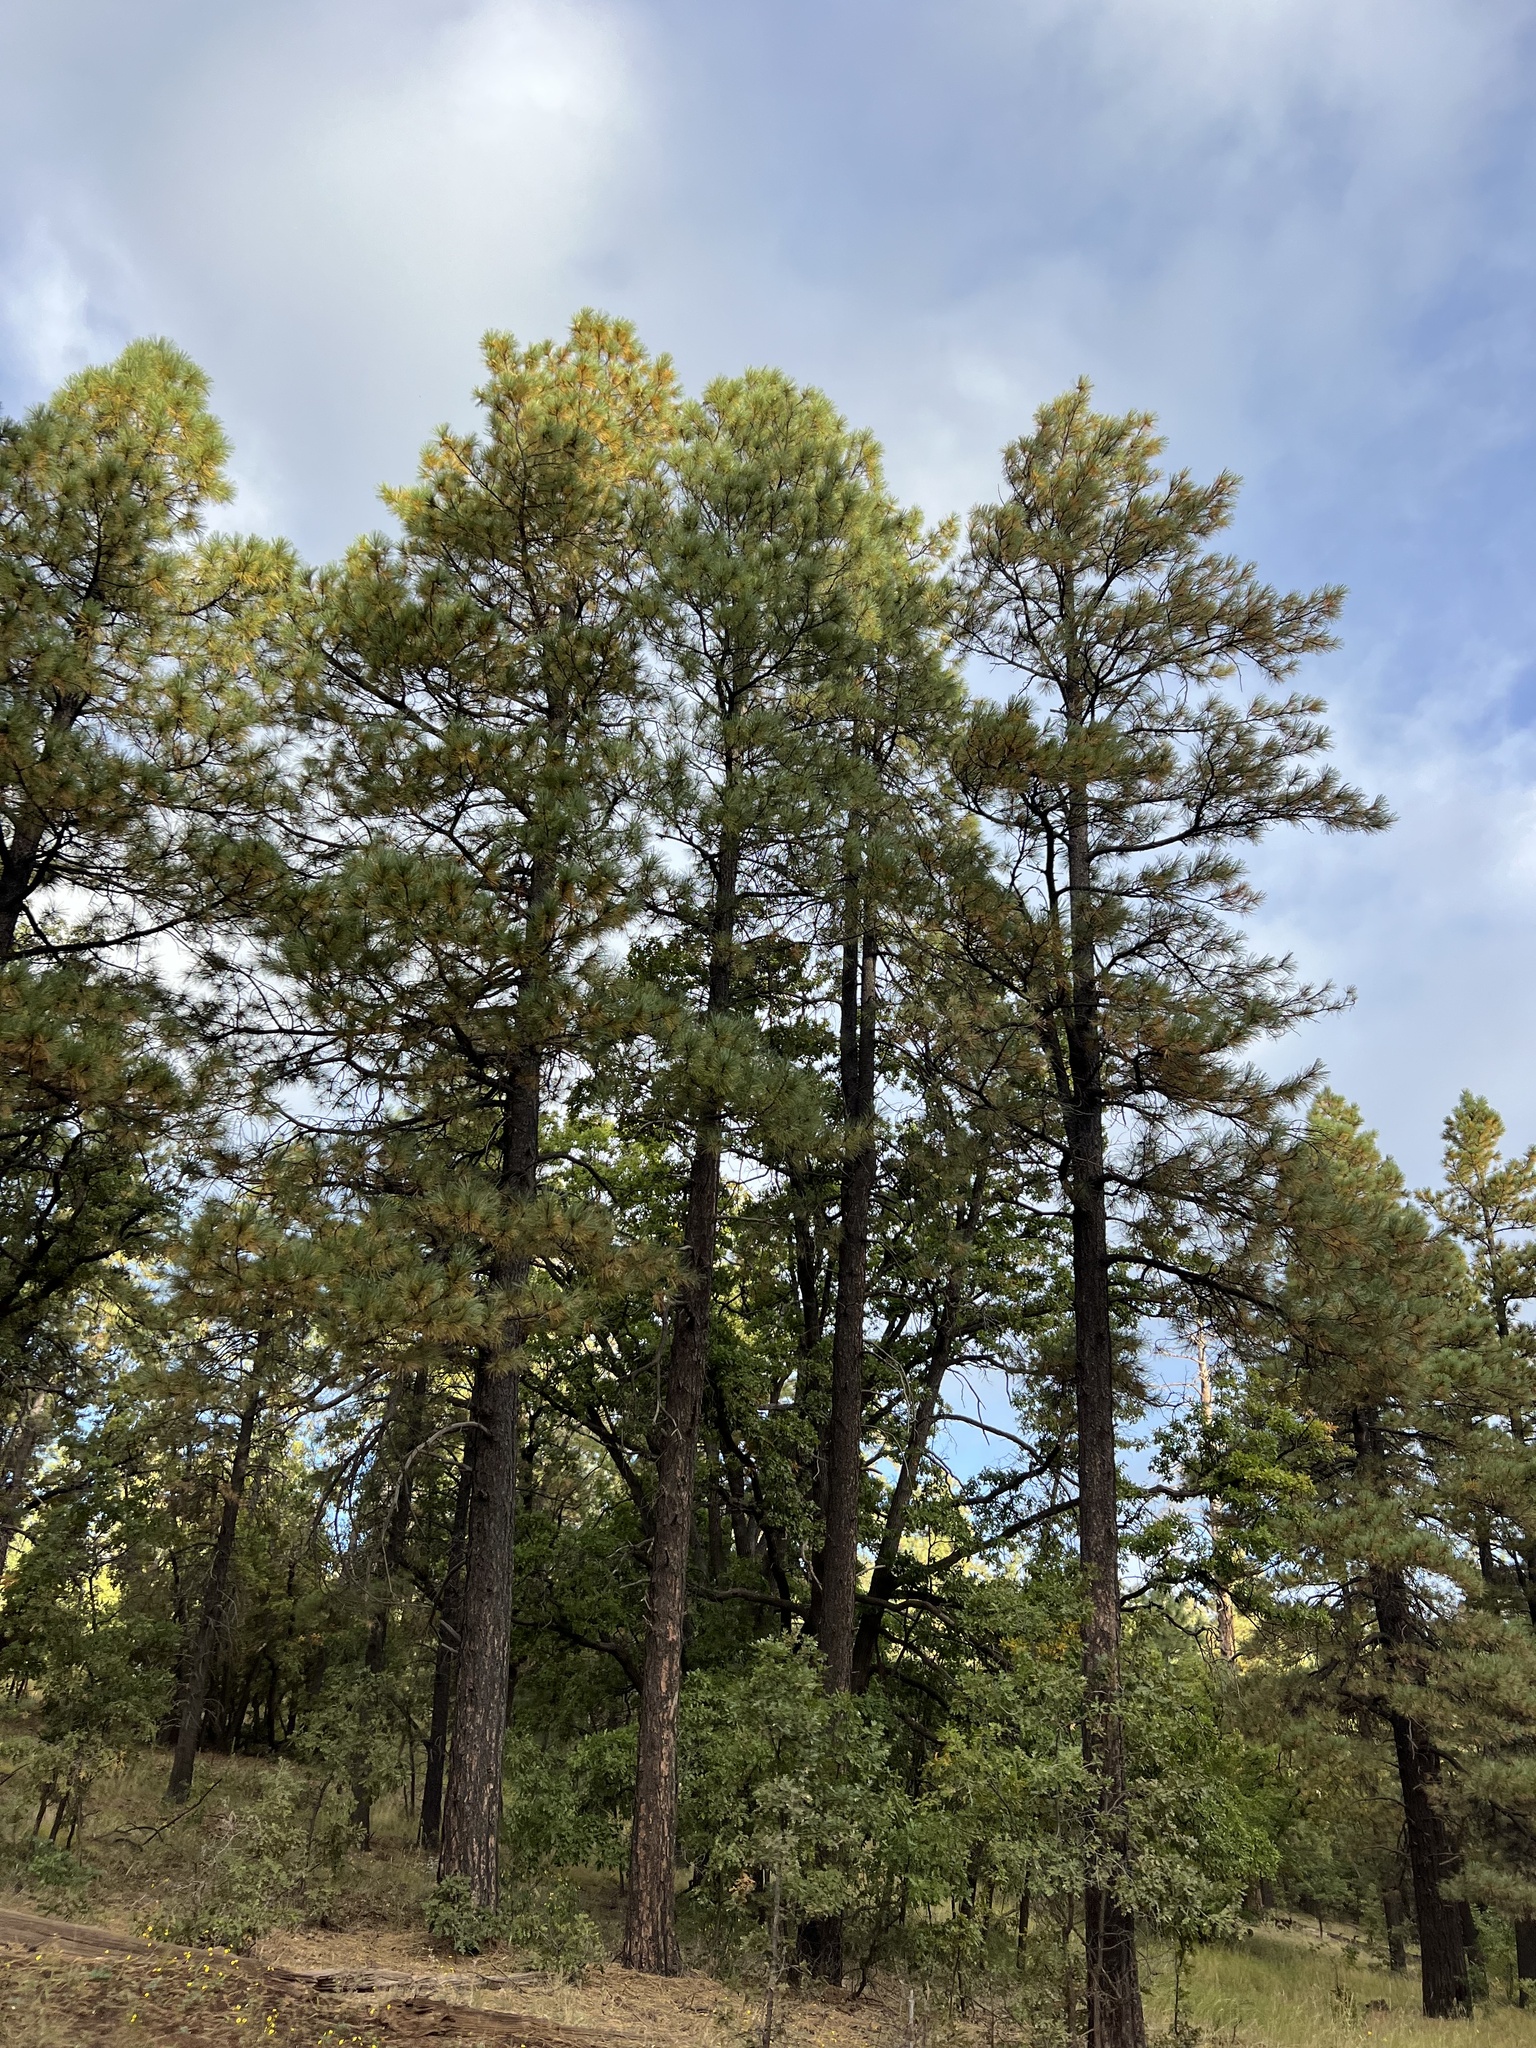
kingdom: Plantae
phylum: Tracheophyta
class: Pinopsida
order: Pinales
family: Pinaceae
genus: Pinus
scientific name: Pinus ponderosa
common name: Western yellow-pine
